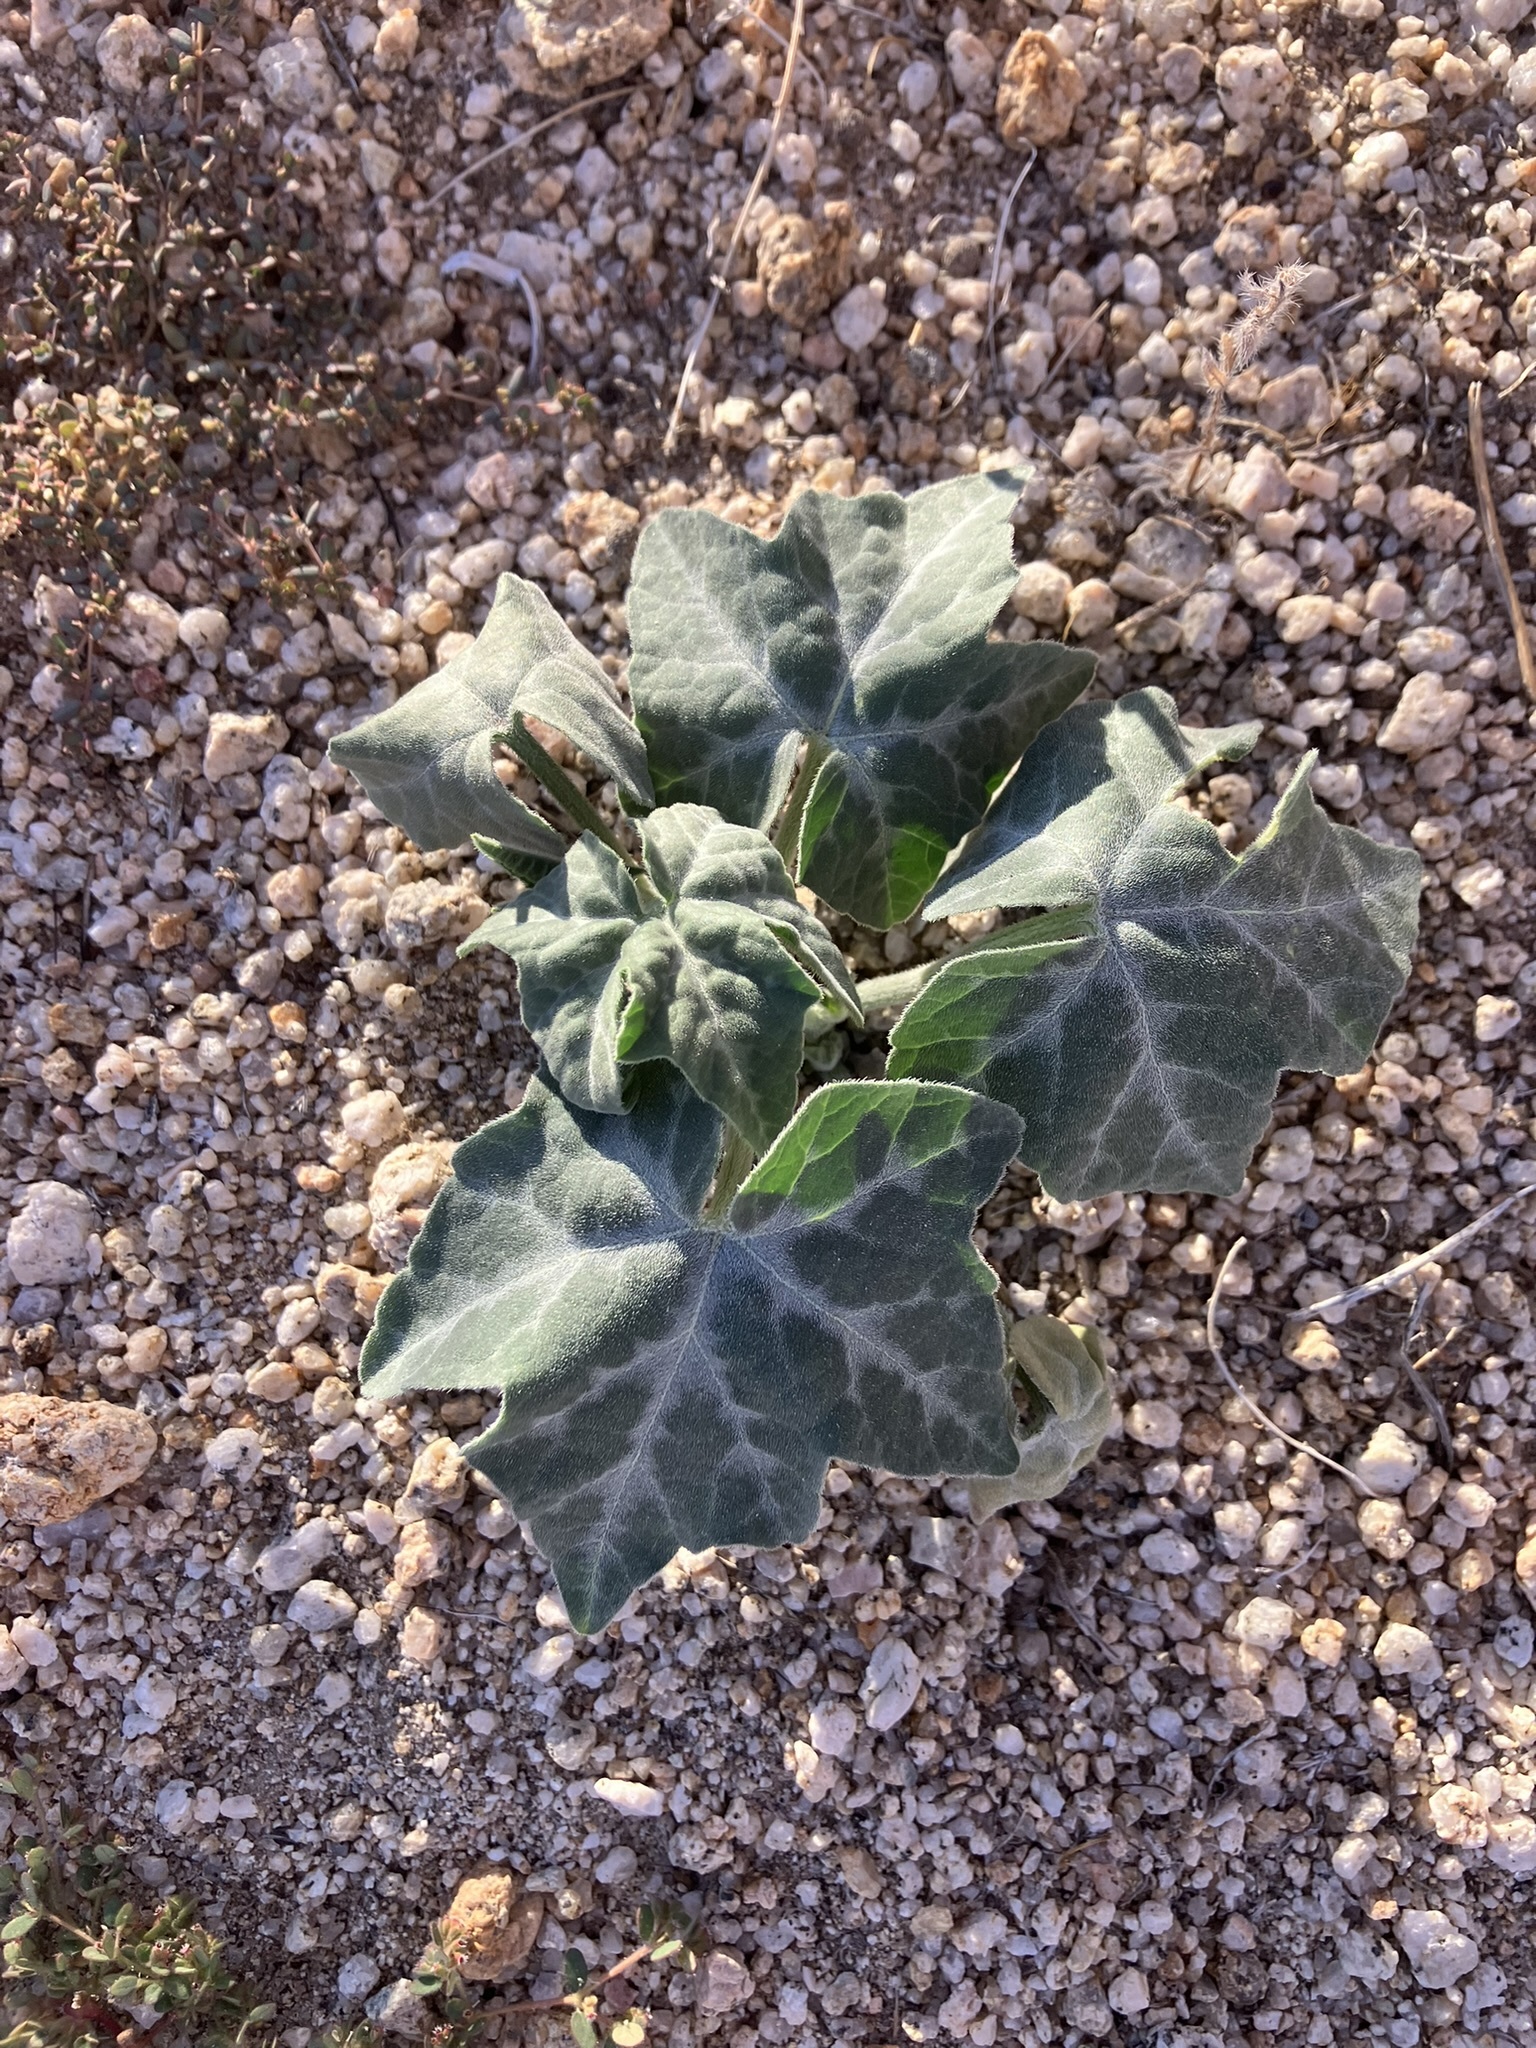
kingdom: Plantae
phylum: Tracheophyta
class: Magnoliopsida
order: Cucurbitales
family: Cucurbitaceae
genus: Cucurbita
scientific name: Cucurbita palmata
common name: Coyote-melon
